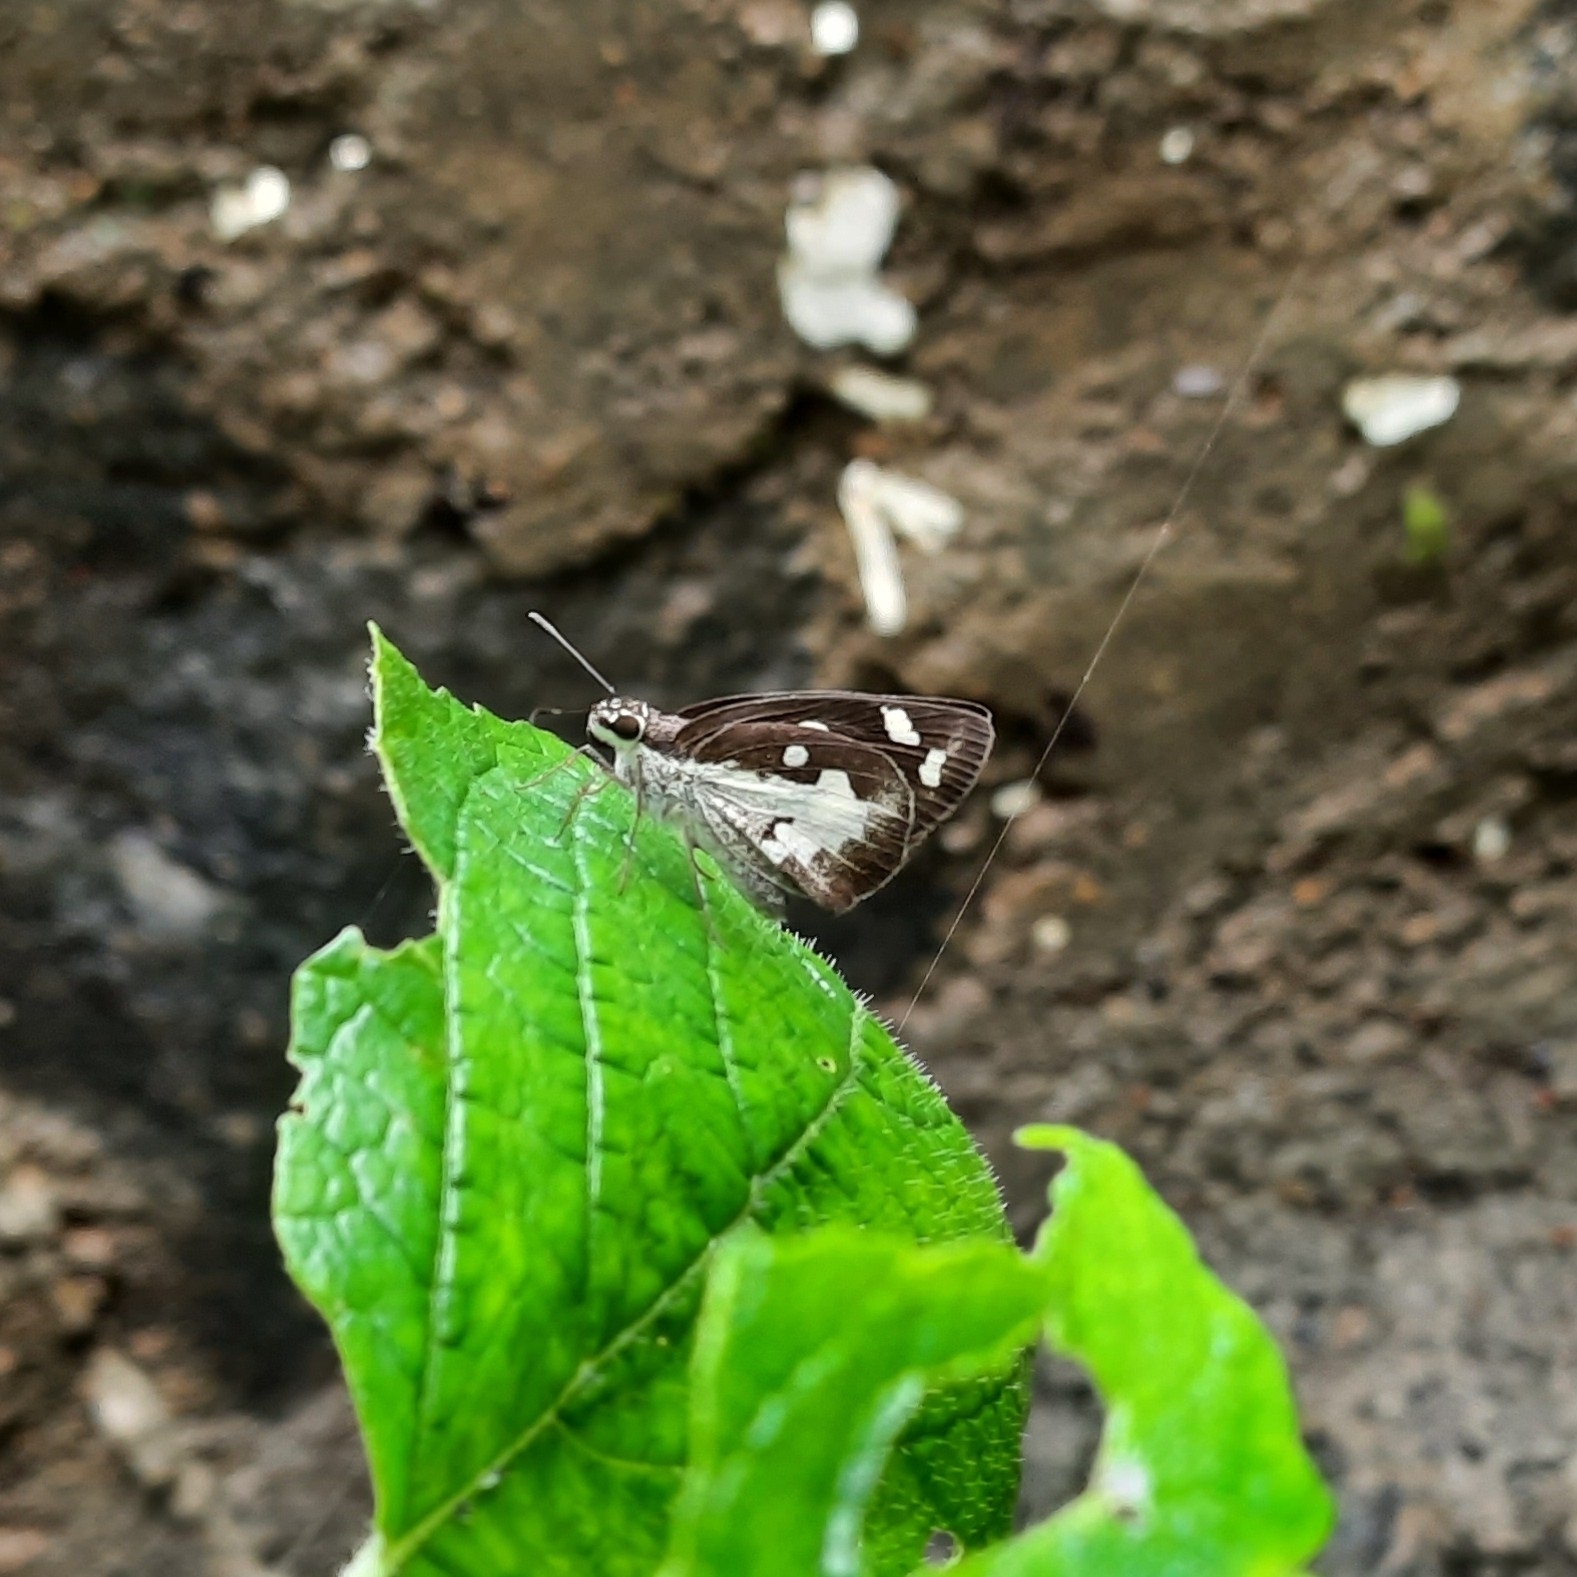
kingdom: Animalia
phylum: Arthropoda
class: Insecta
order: Lepidoptera
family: Hesperiidae
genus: Udaspes
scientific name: Udaspes folus
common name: Grass demon
